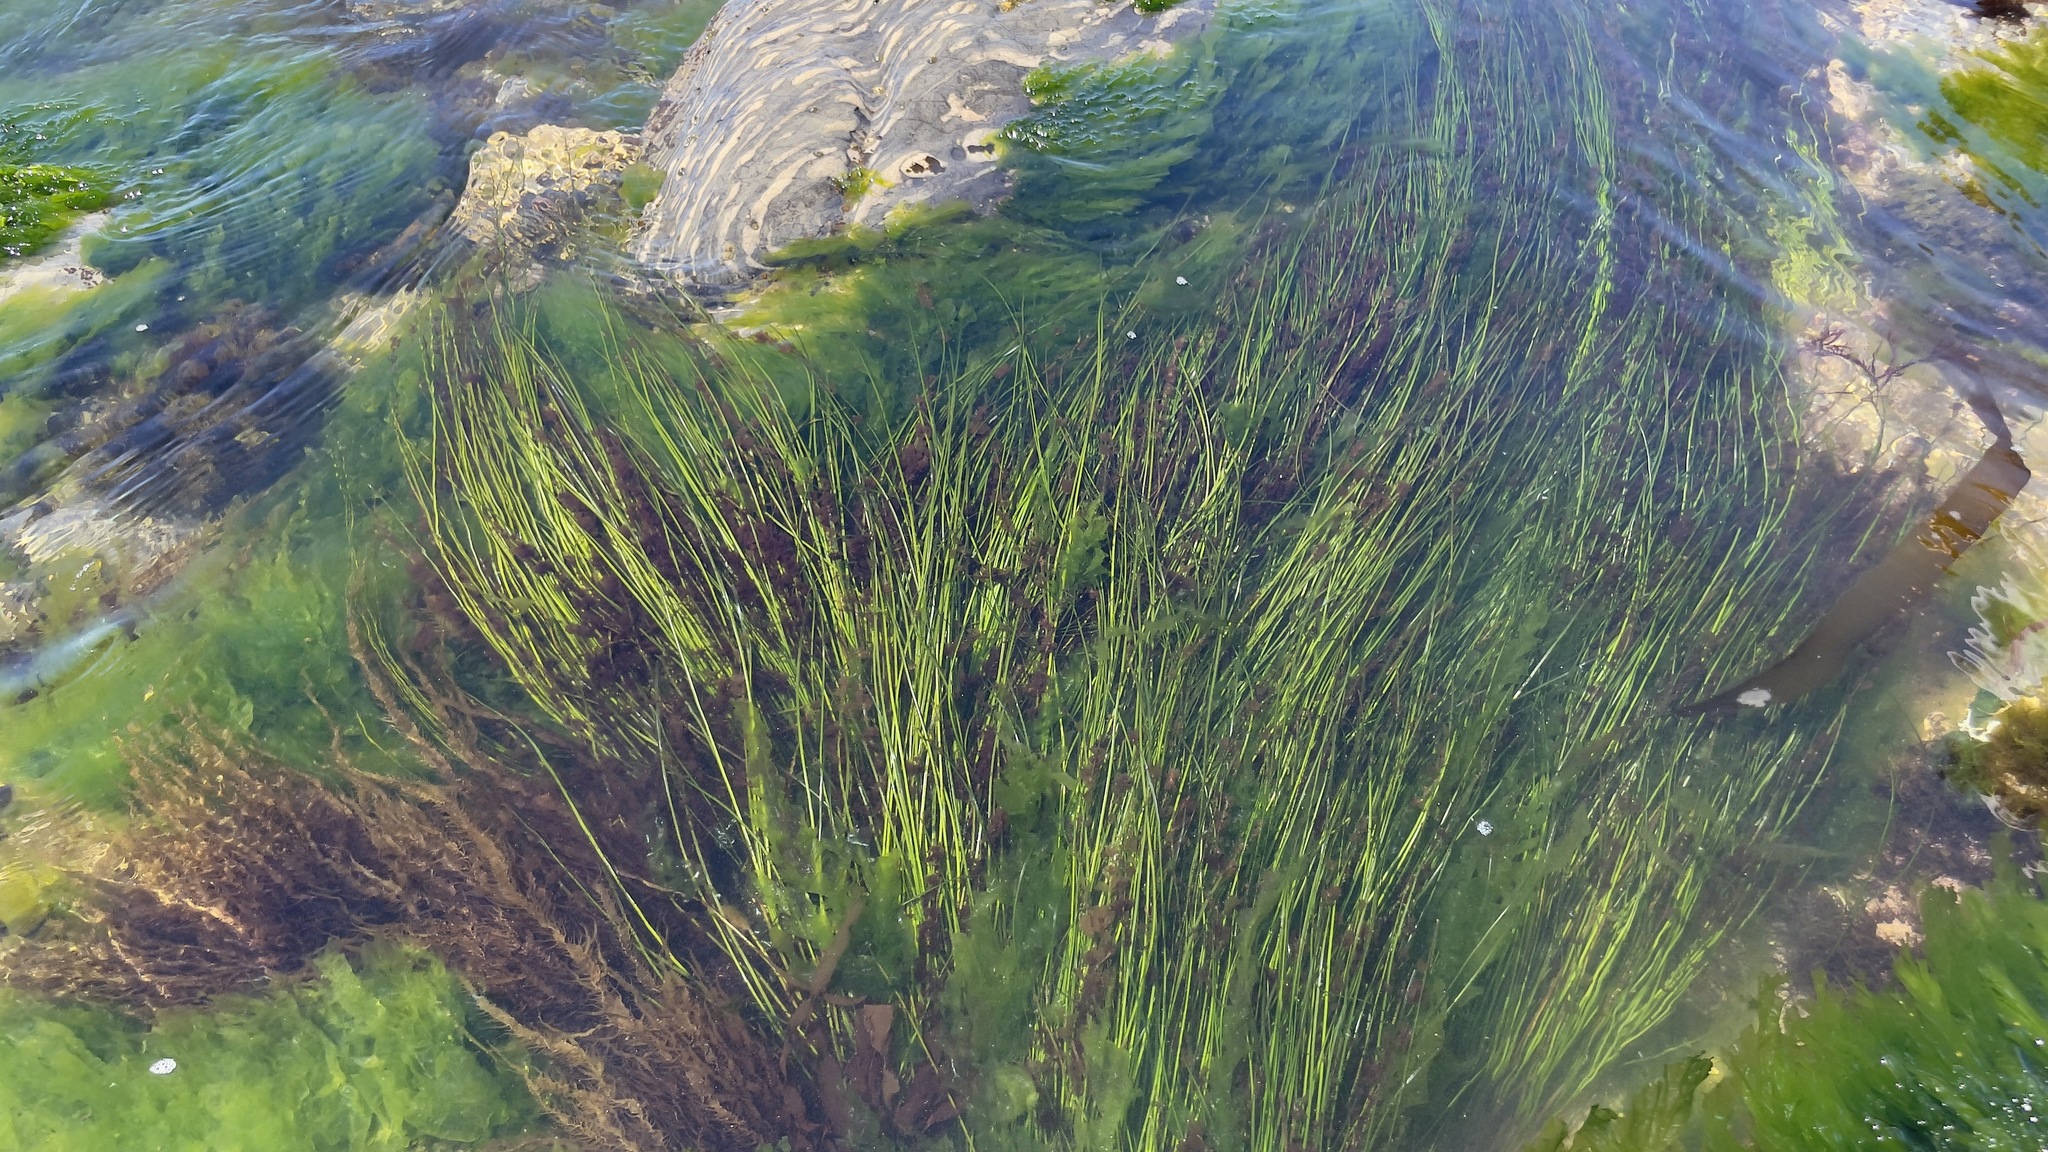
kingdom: Plantae
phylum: Tracheophyta
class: Liliopsida
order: Alismatales
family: Zosteraceae
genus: Phyllospadix
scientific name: Phyllospadix torreyi
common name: Surfgrass
